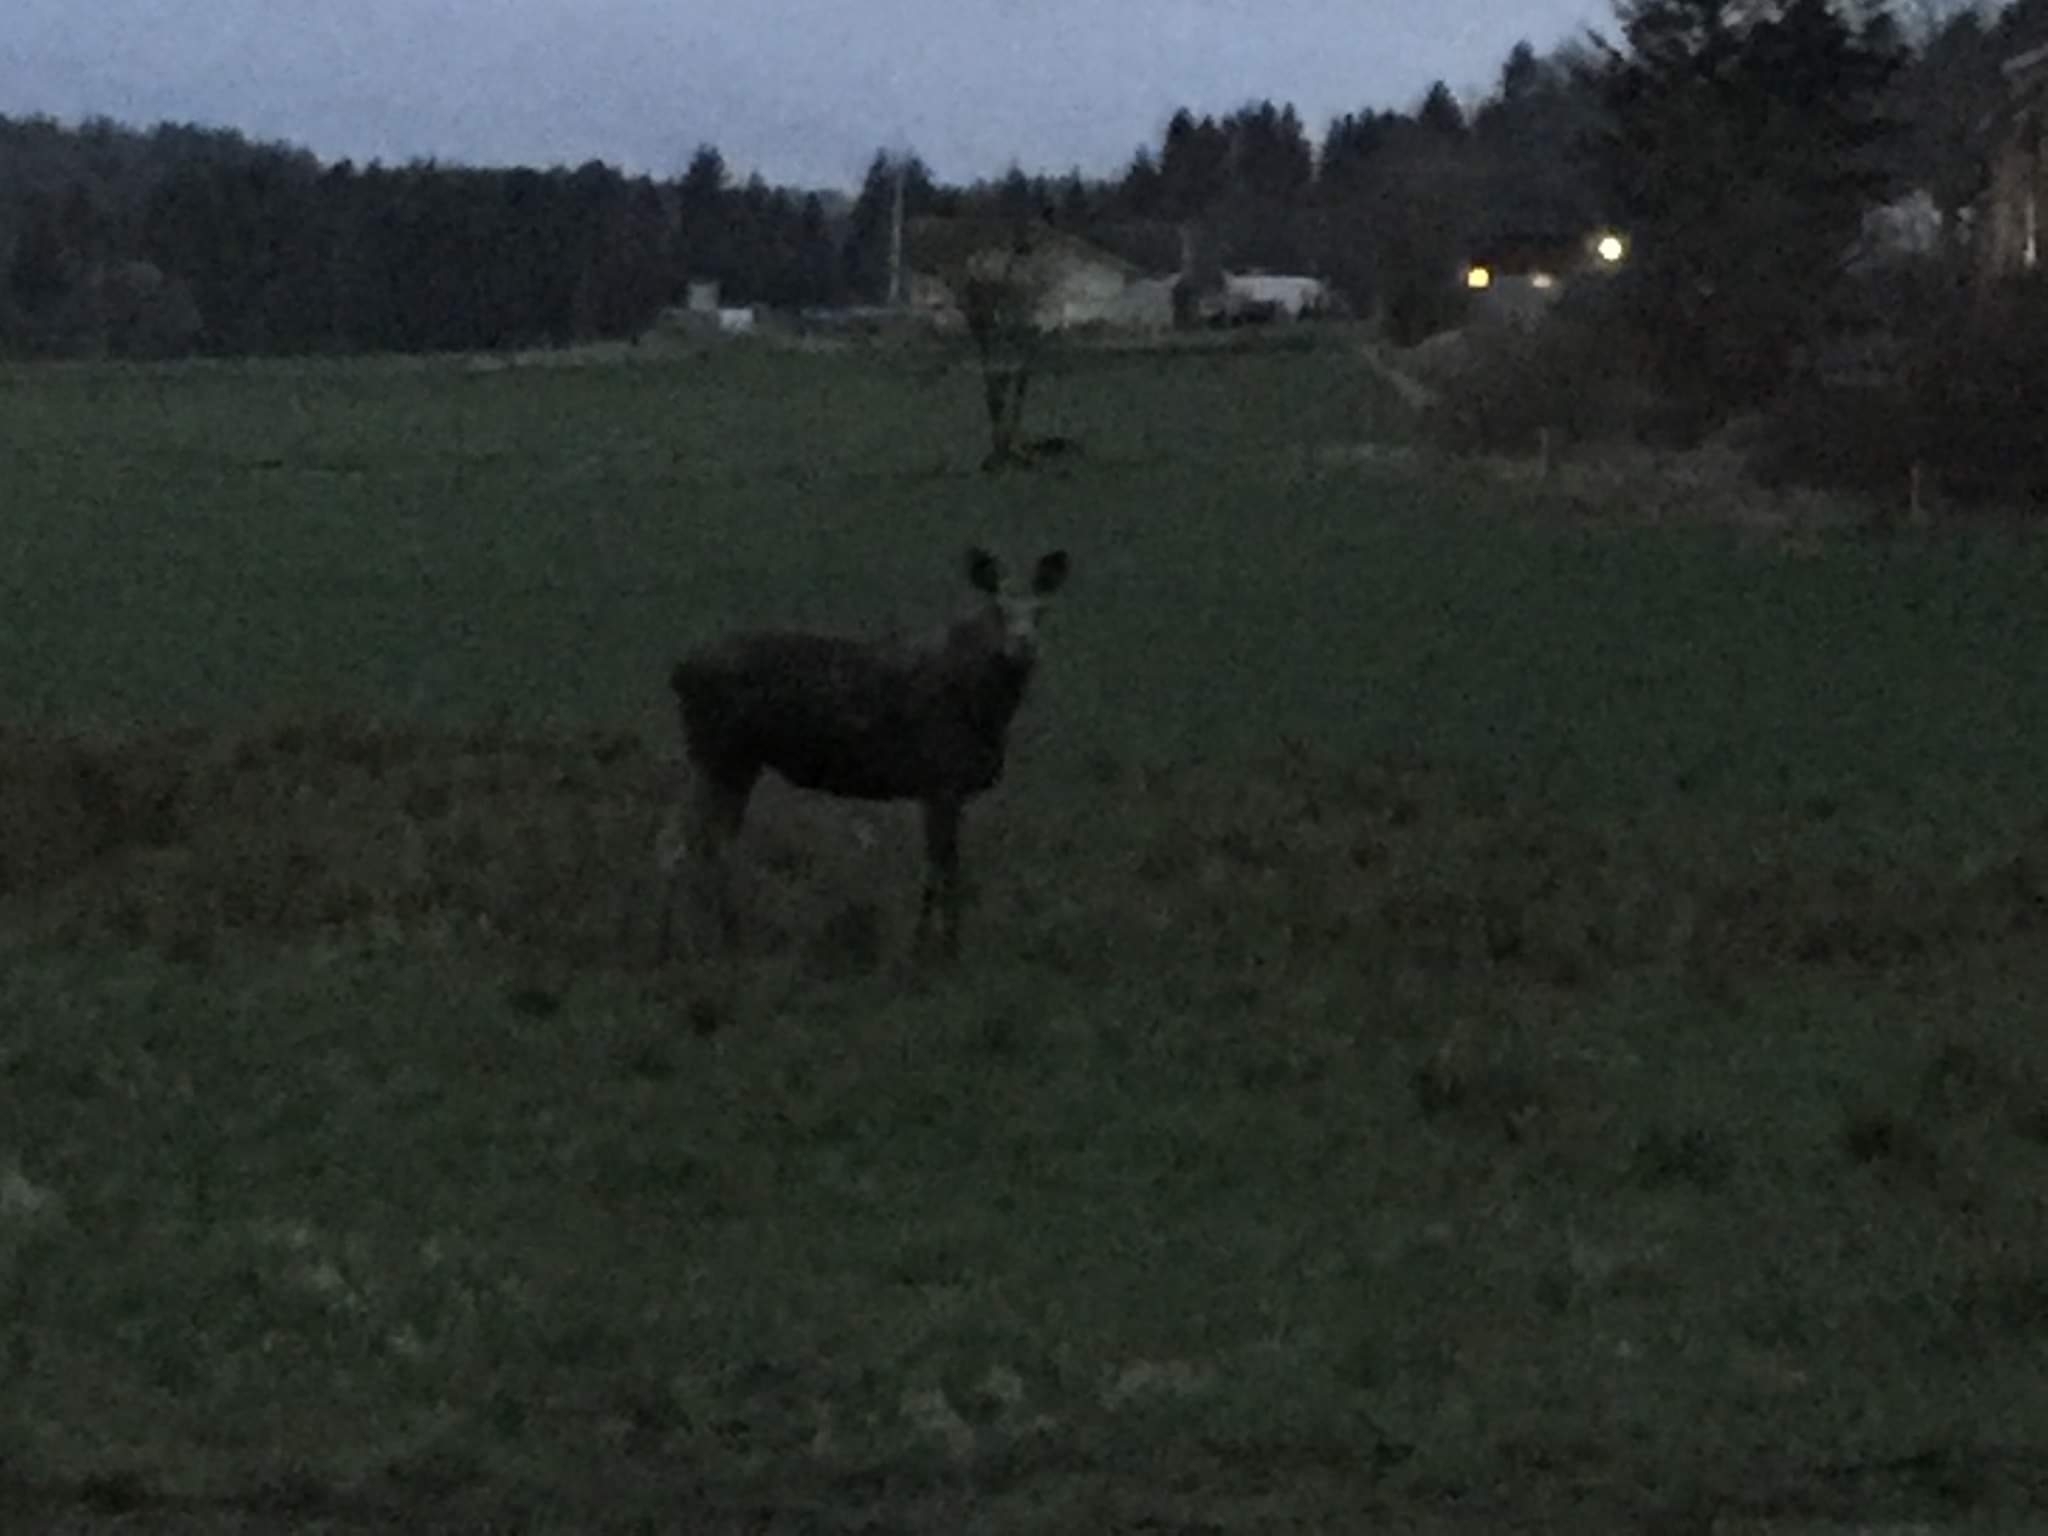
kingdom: Animalia
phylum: Chordata
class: Mammalia
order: Artiodactyla
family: Cervidae
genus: Alces
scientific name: Alces alces
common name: Moose
